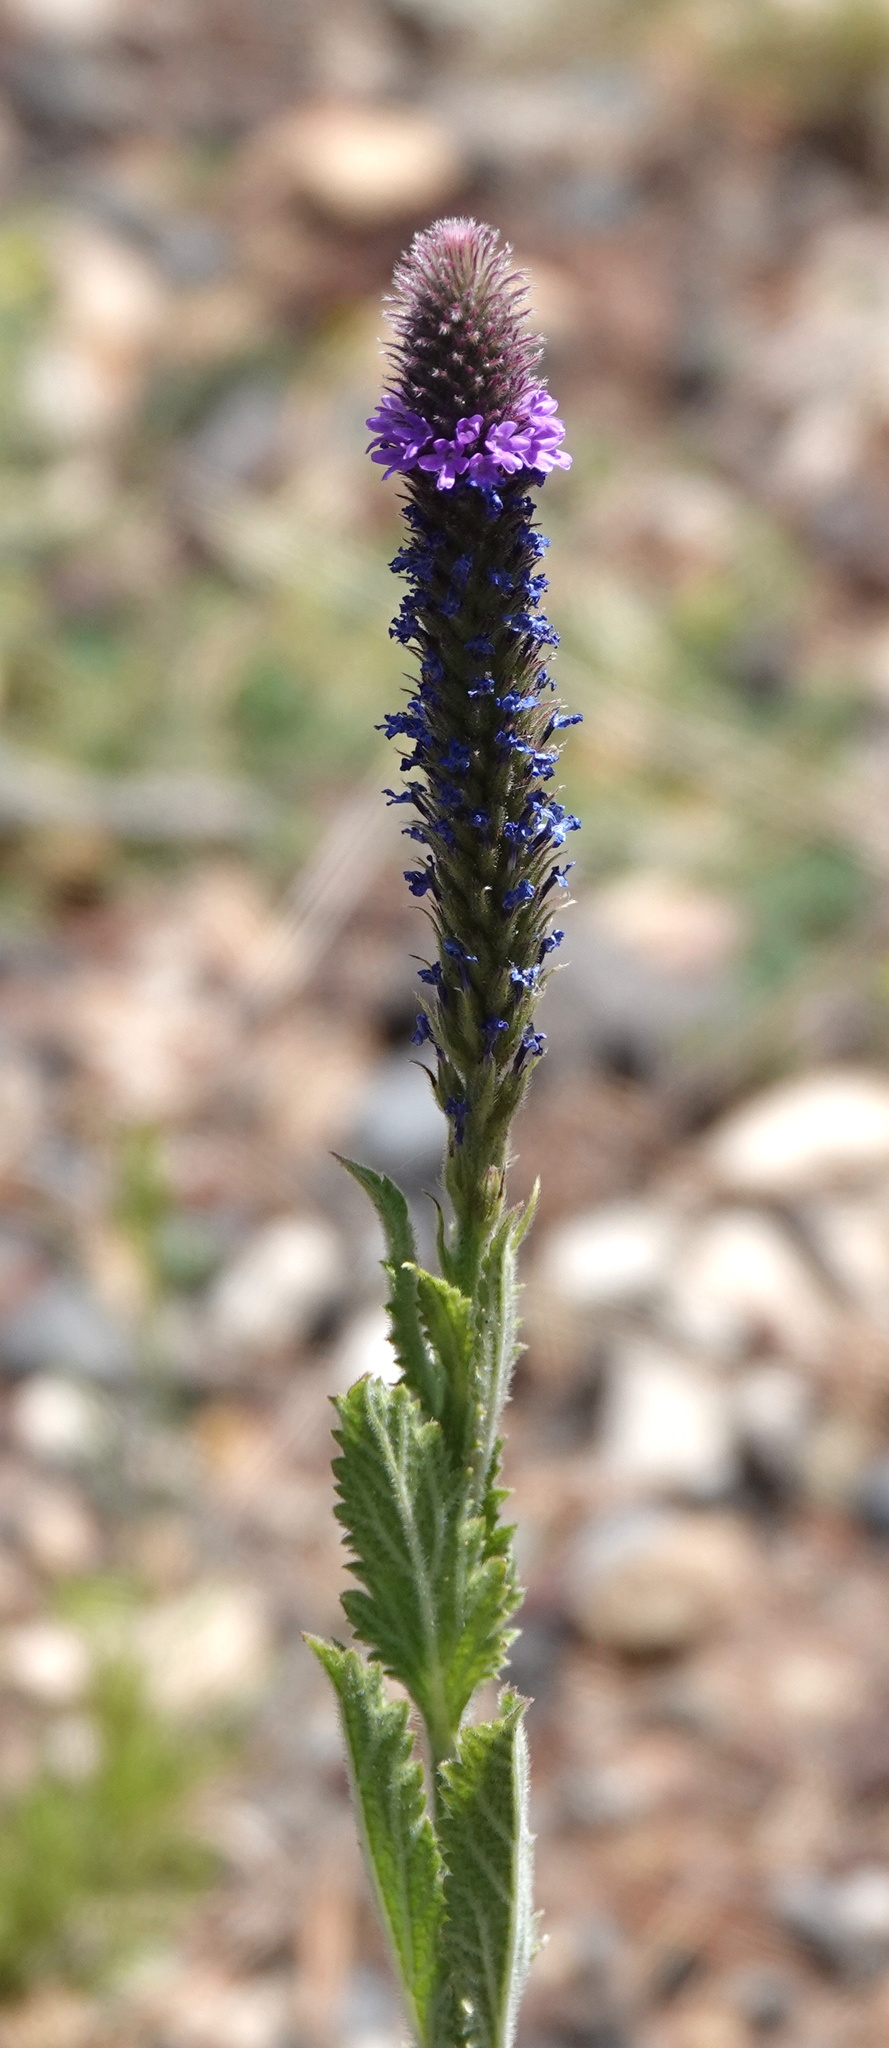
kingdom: Plantae
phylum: Tracheophyta
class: Magnoliopsida
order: Lamiales
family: Verbenaceae
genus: Verbena
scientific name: Verbena macdougalii
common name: New mexico vervain
